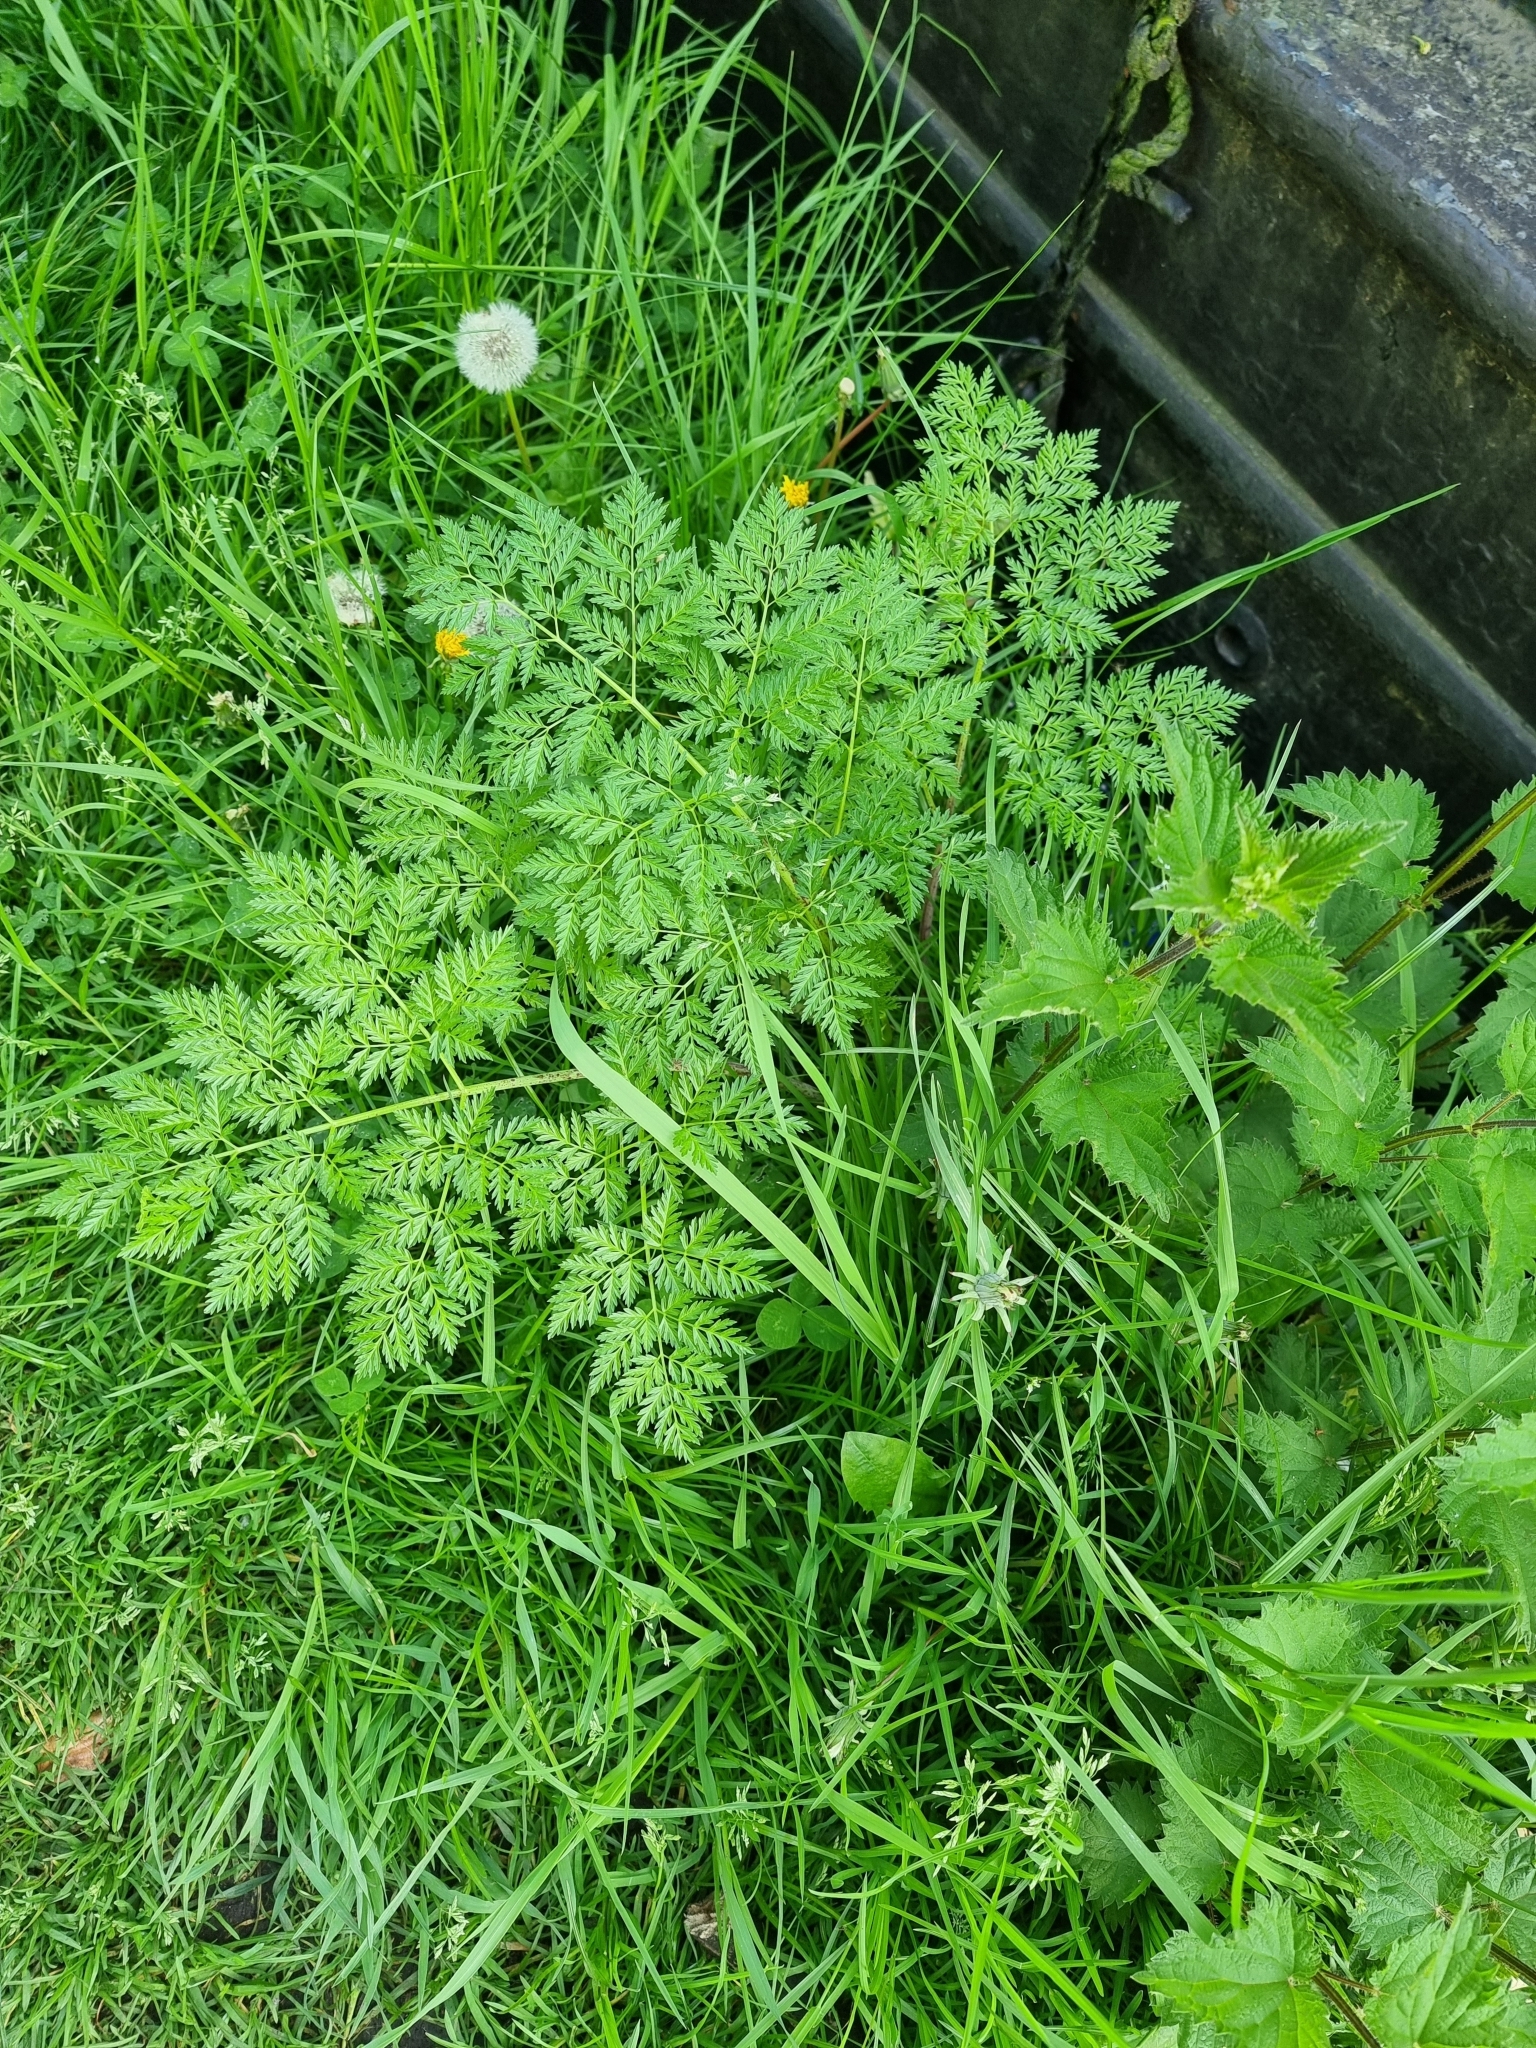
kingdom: Plantae
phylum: Tracheophyta
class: Magnoliopsida
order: Apiales
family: Apiaceae
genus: Conium
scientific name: Conium maculatum
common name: Hemlock
